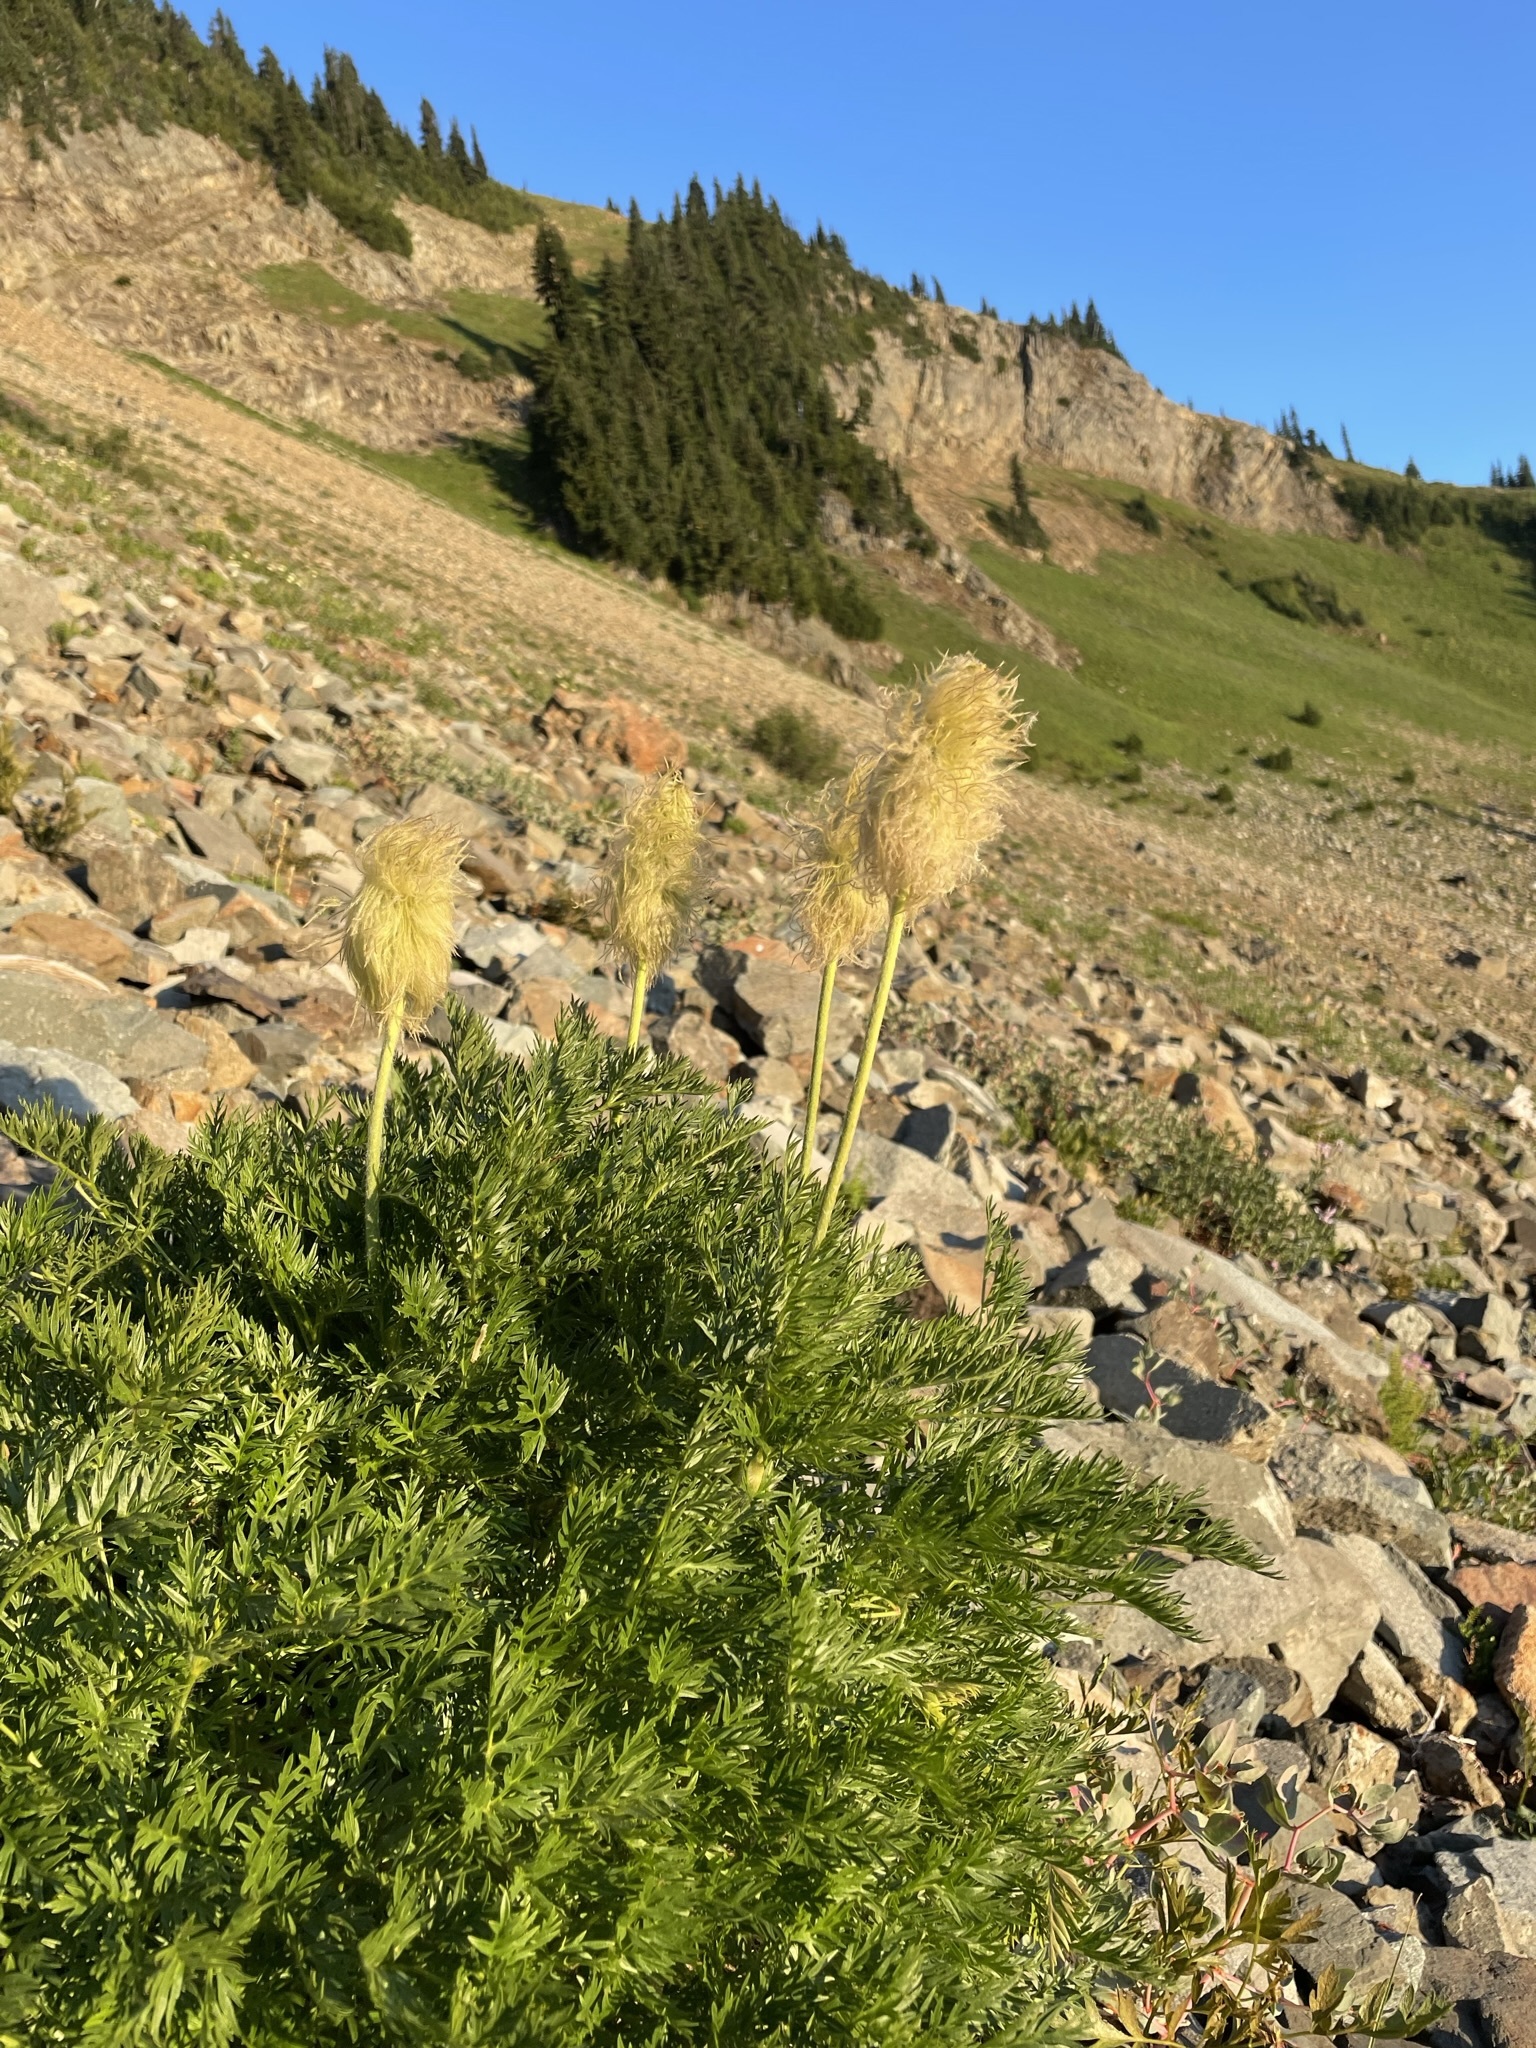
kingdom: Plantae
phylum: Tracheophyta
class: Magnoliopsida
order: Ranunculales
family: Ranunculaceae
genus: Pulsatilla
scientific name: Pulsatilla occidentalis
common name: Mountain pasqueflower
